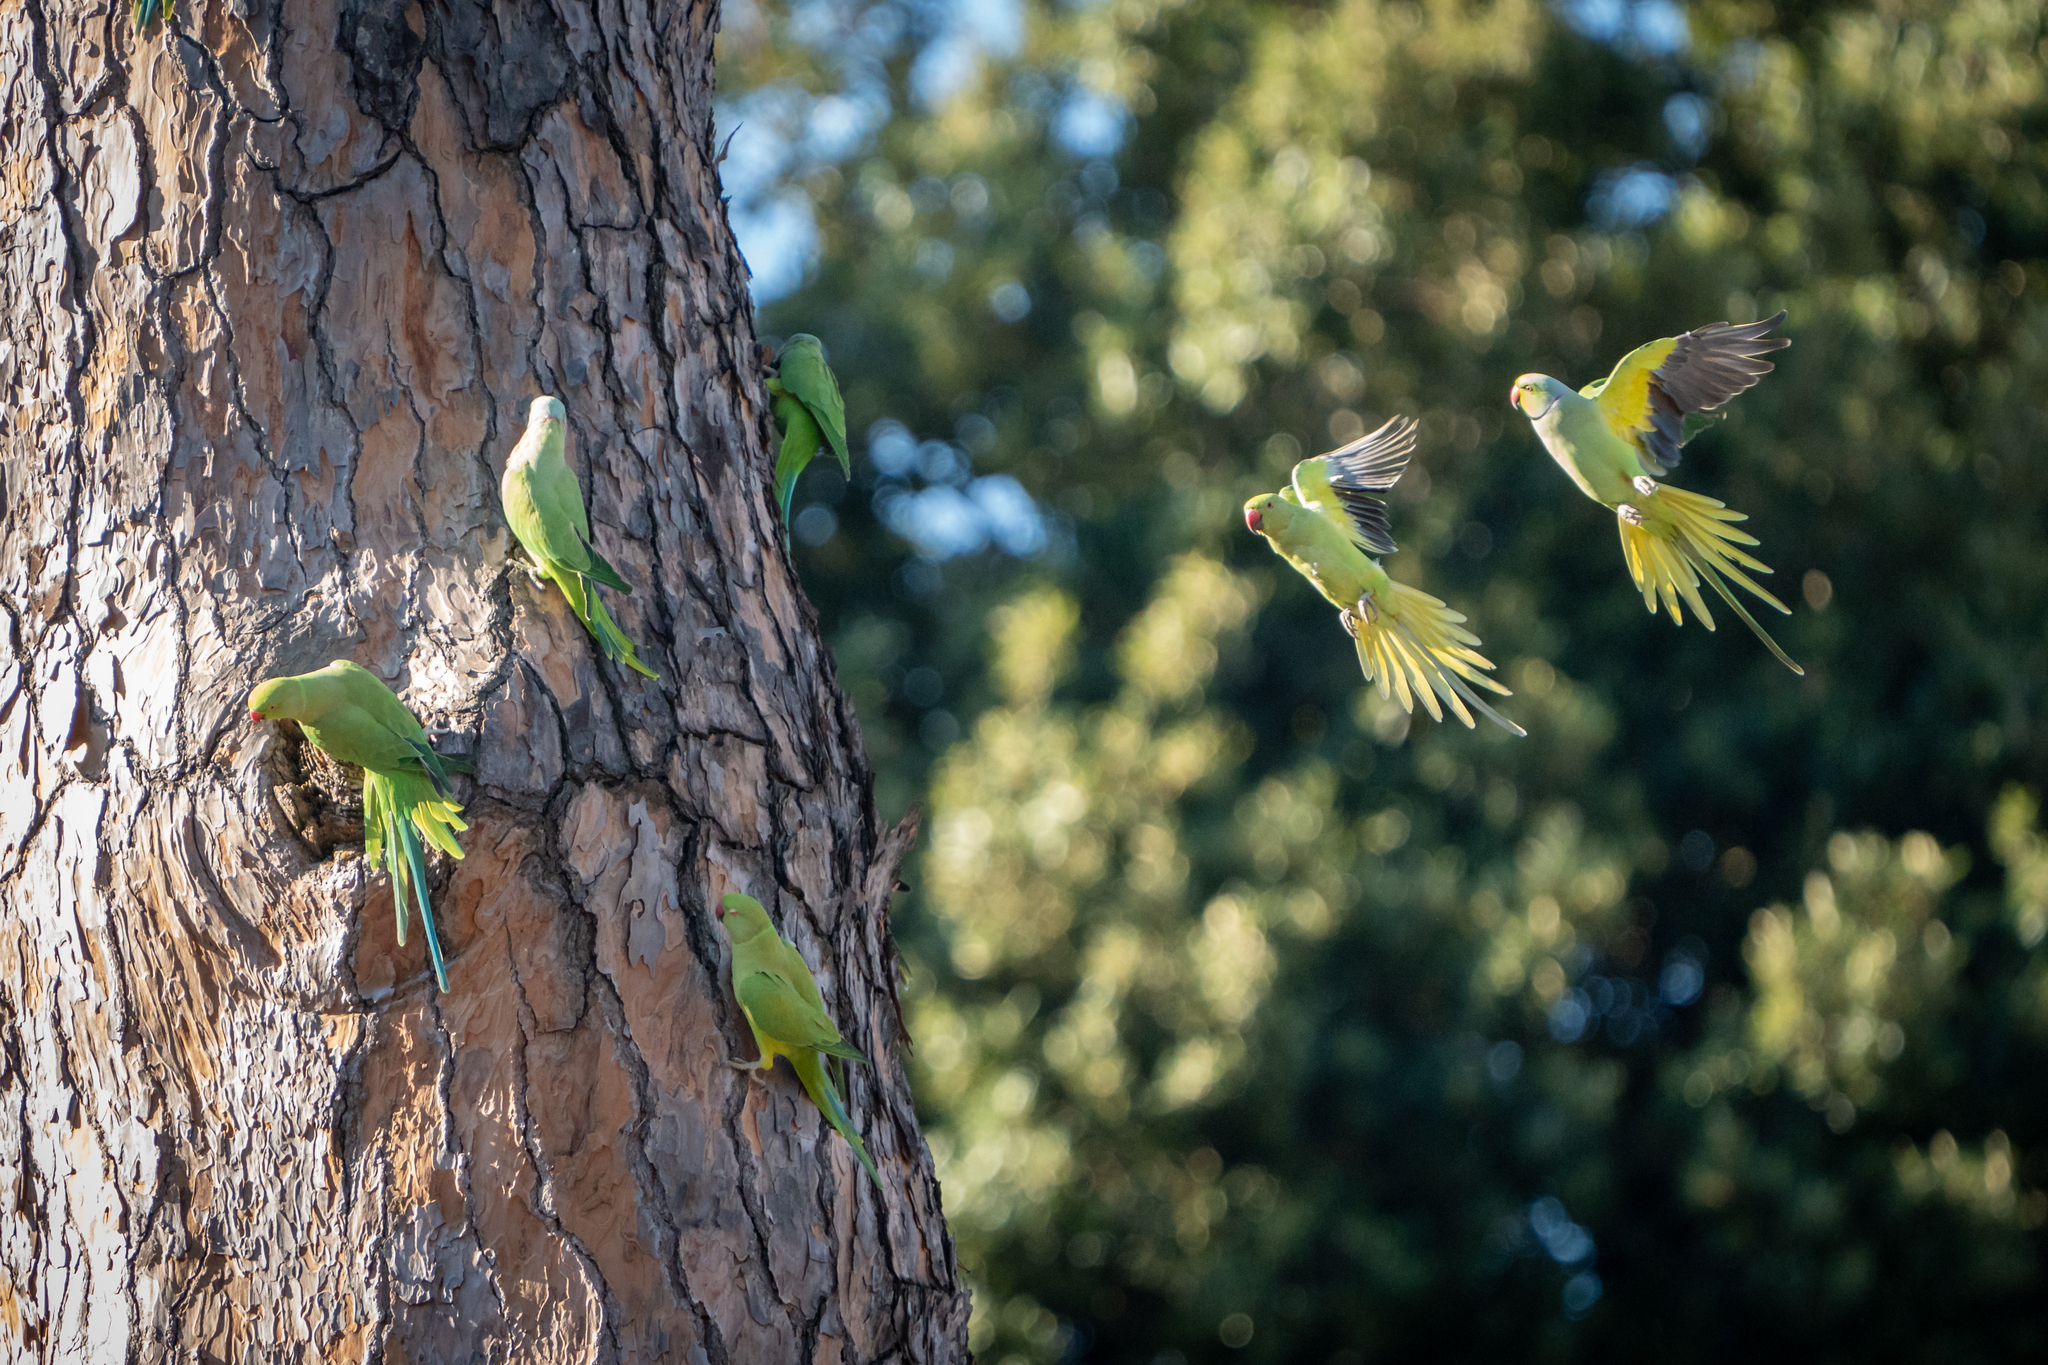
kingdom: Animalia
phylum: Chordata
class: Aves
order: Psittaciformes
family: Psittacidae
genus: Psittacula
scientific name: Psittacula krameri
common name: Rose-ringed parakeet
